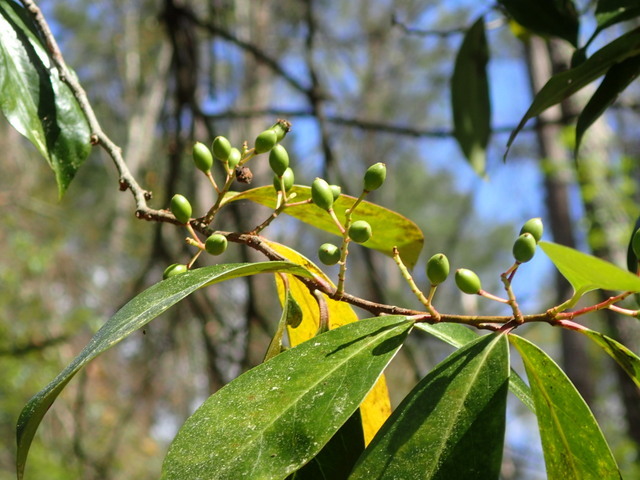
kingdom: Plantae
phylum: Tracheophyta
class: Magnoliopsida
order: Rosales
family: Rosaceae
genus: Prunus
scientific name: Prunus caroliniana
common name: Carolina laurel cherry
